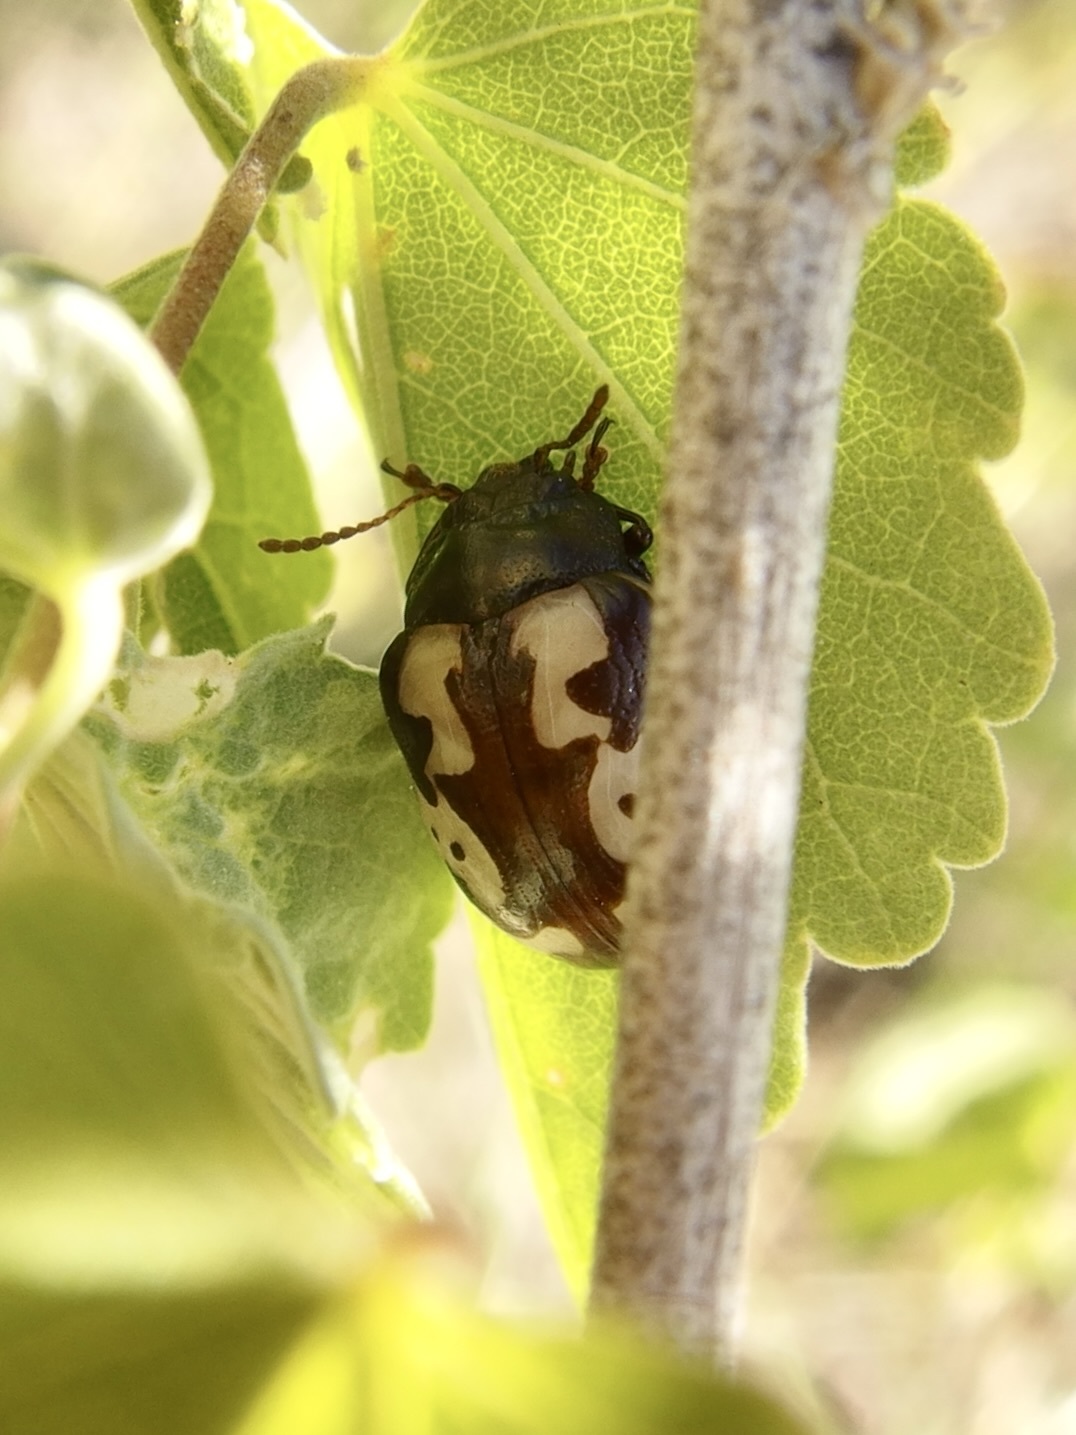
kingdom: Animalia
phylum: Arthropoda
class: Insecta
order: Coleoptera
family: Chrysomelidae
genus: Calligrapha
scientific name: Calligrapha ancoralis
